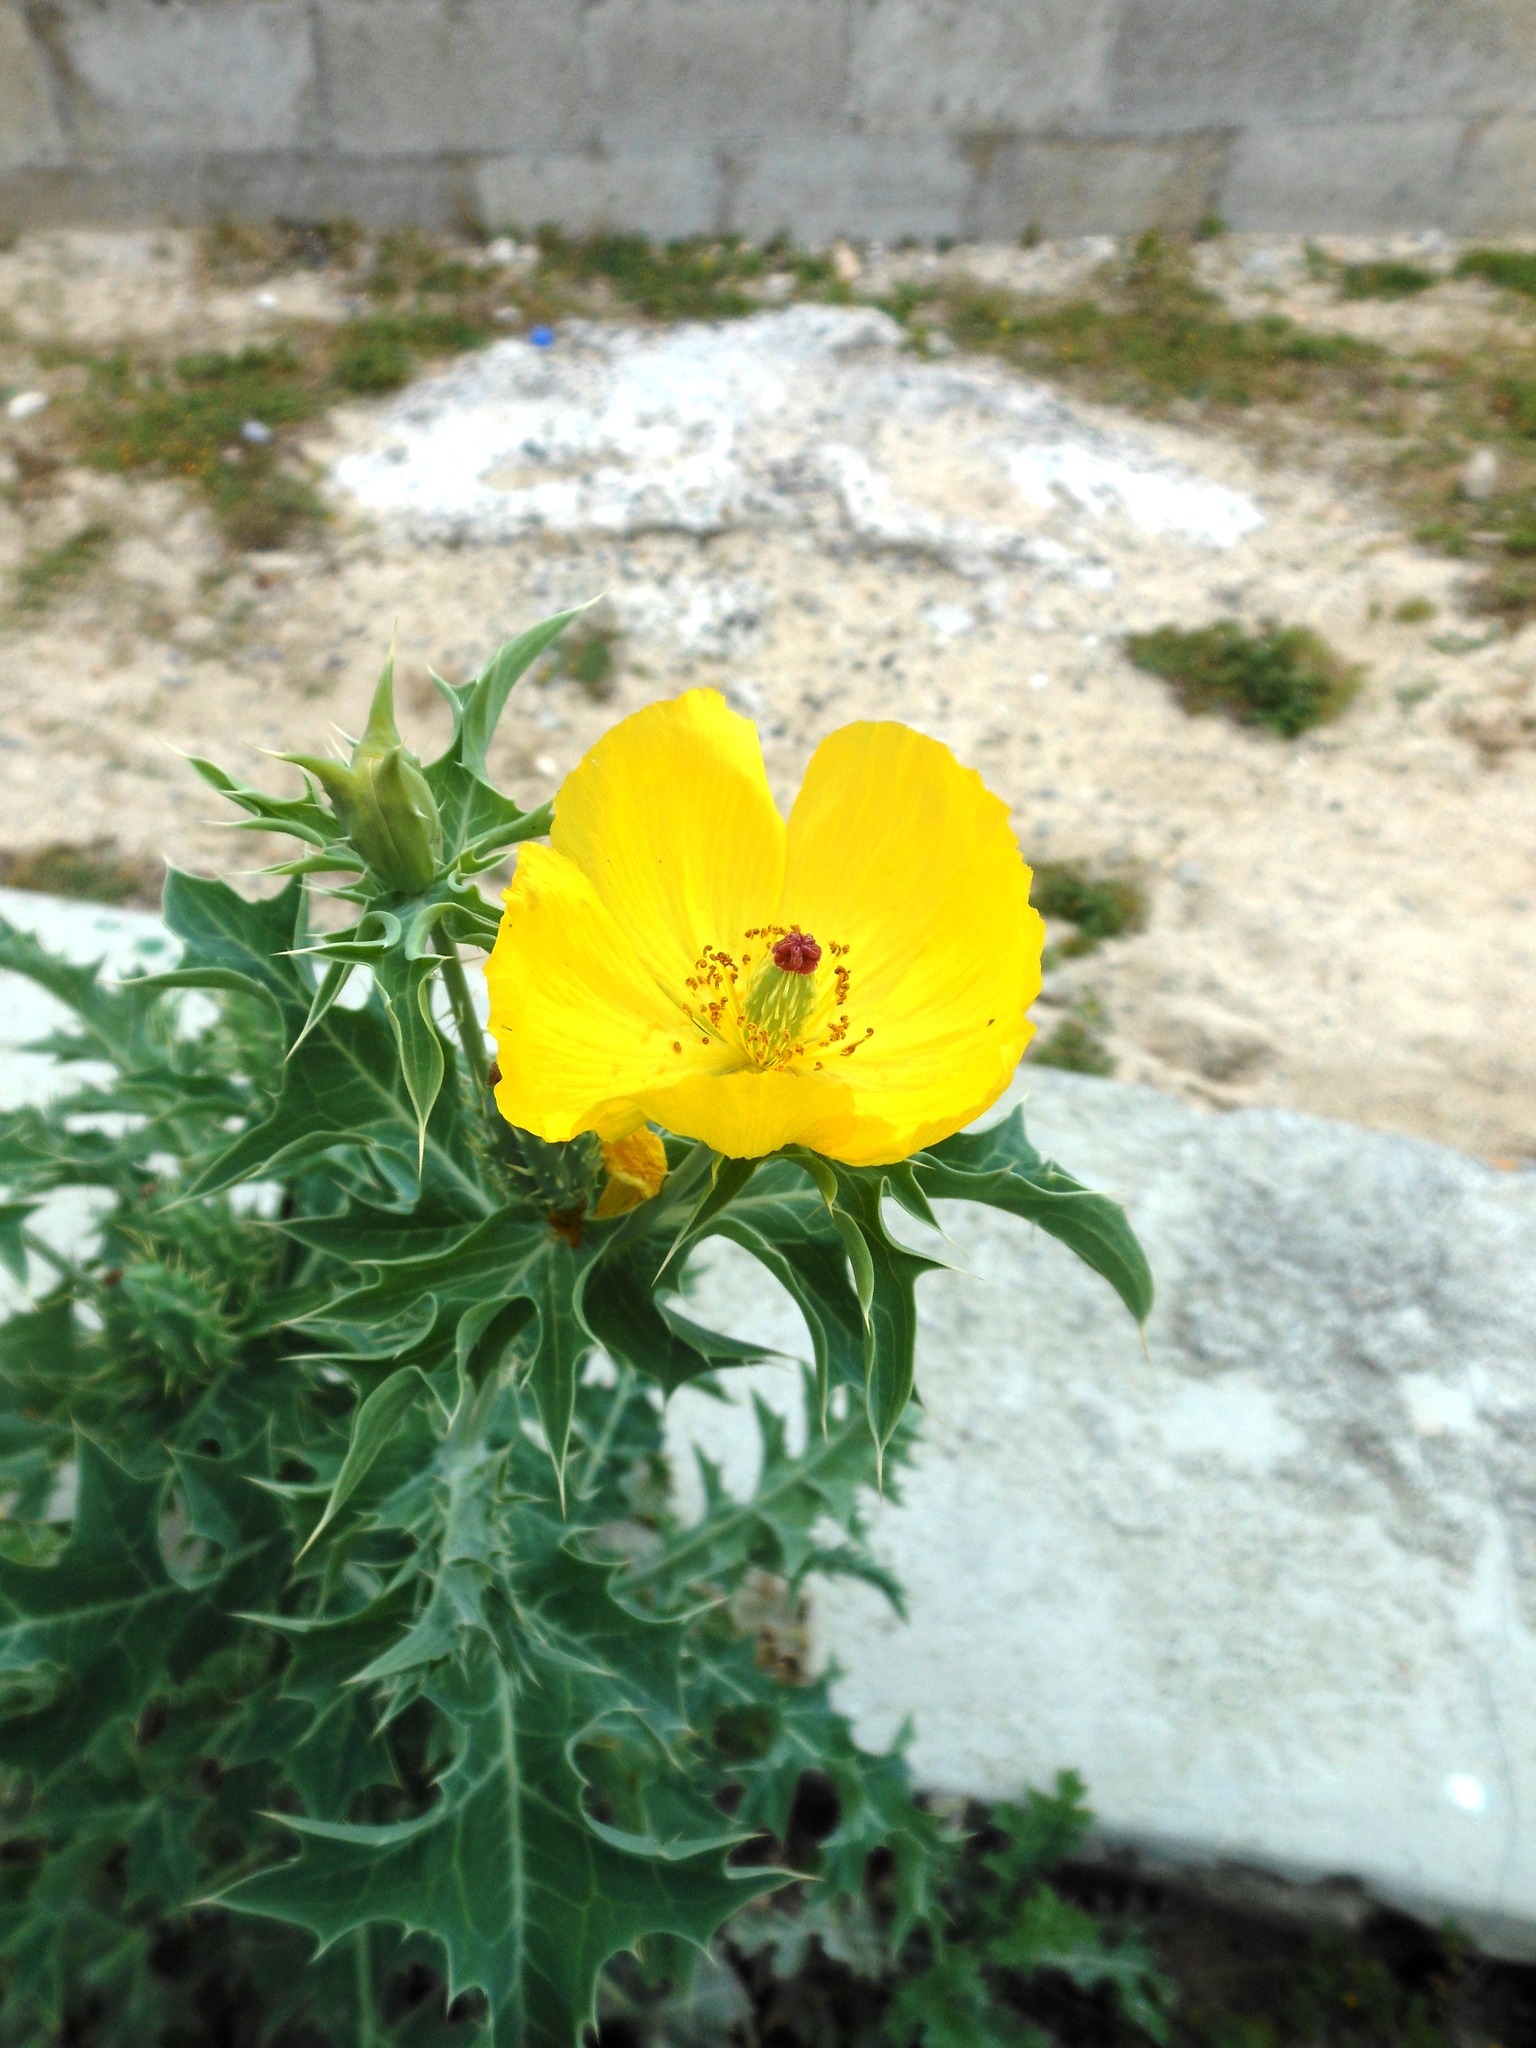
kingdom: Plantae
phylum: Tracheophyta
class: Magnoliopsida
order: Ranunculales
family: Papaveraceae
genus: Argemone
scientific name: Argemone mexicana
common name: Mexican poppy
